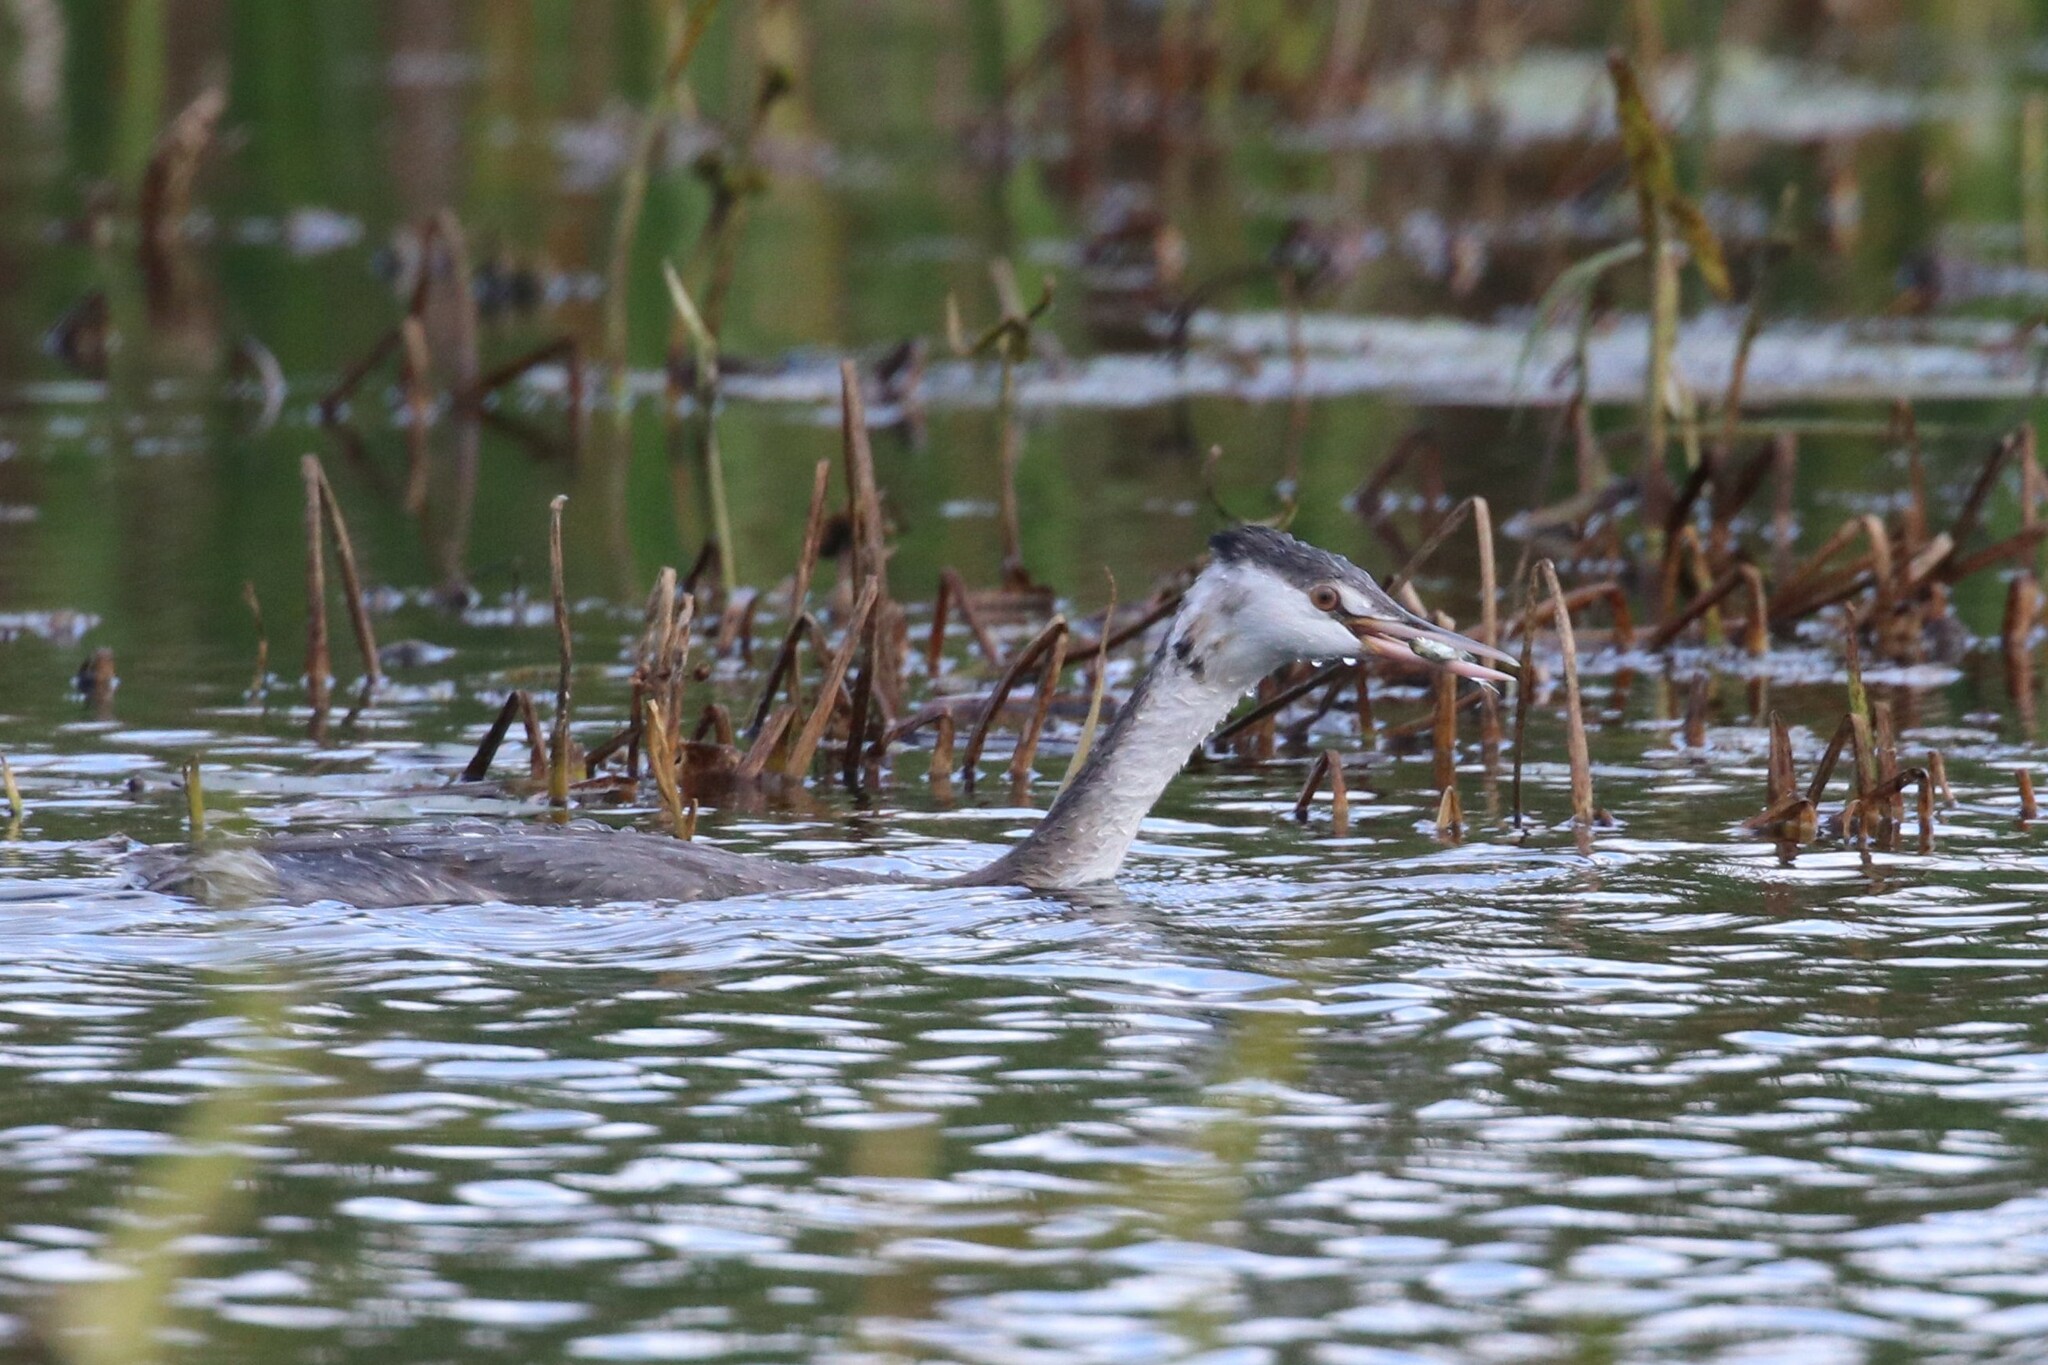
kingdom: Animalia
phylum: Chordata
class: Aves
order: Podicipediformes
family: Podicipedidae
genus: Podiceps
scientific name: Podiceps cristatus
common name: Great crested grebe
